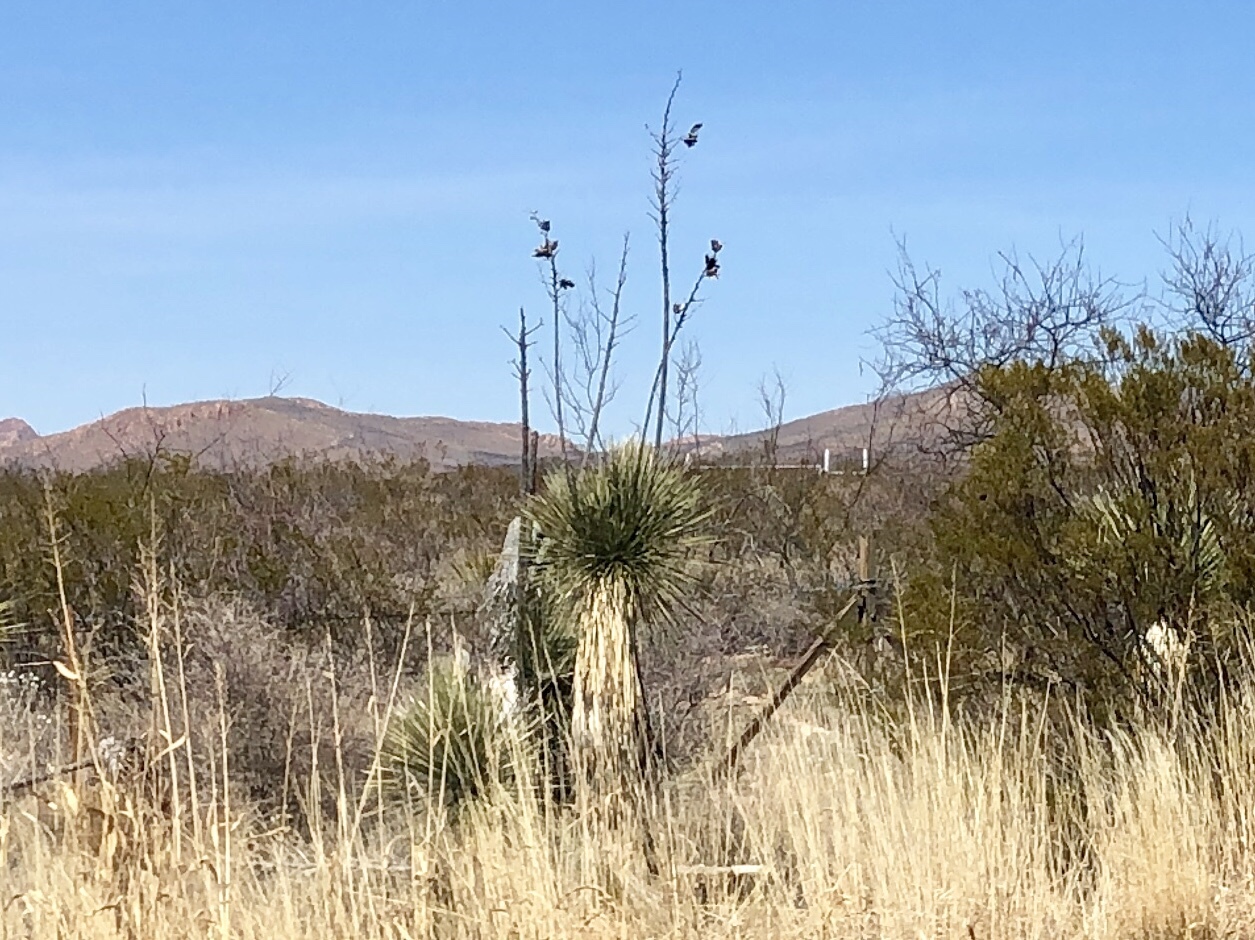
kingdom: Plantae
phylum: Tracheophyta
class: Liliopsida
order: Asparagales
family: Asparagaceae
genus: Yucca
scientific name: Yucca elata
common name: Palmella
